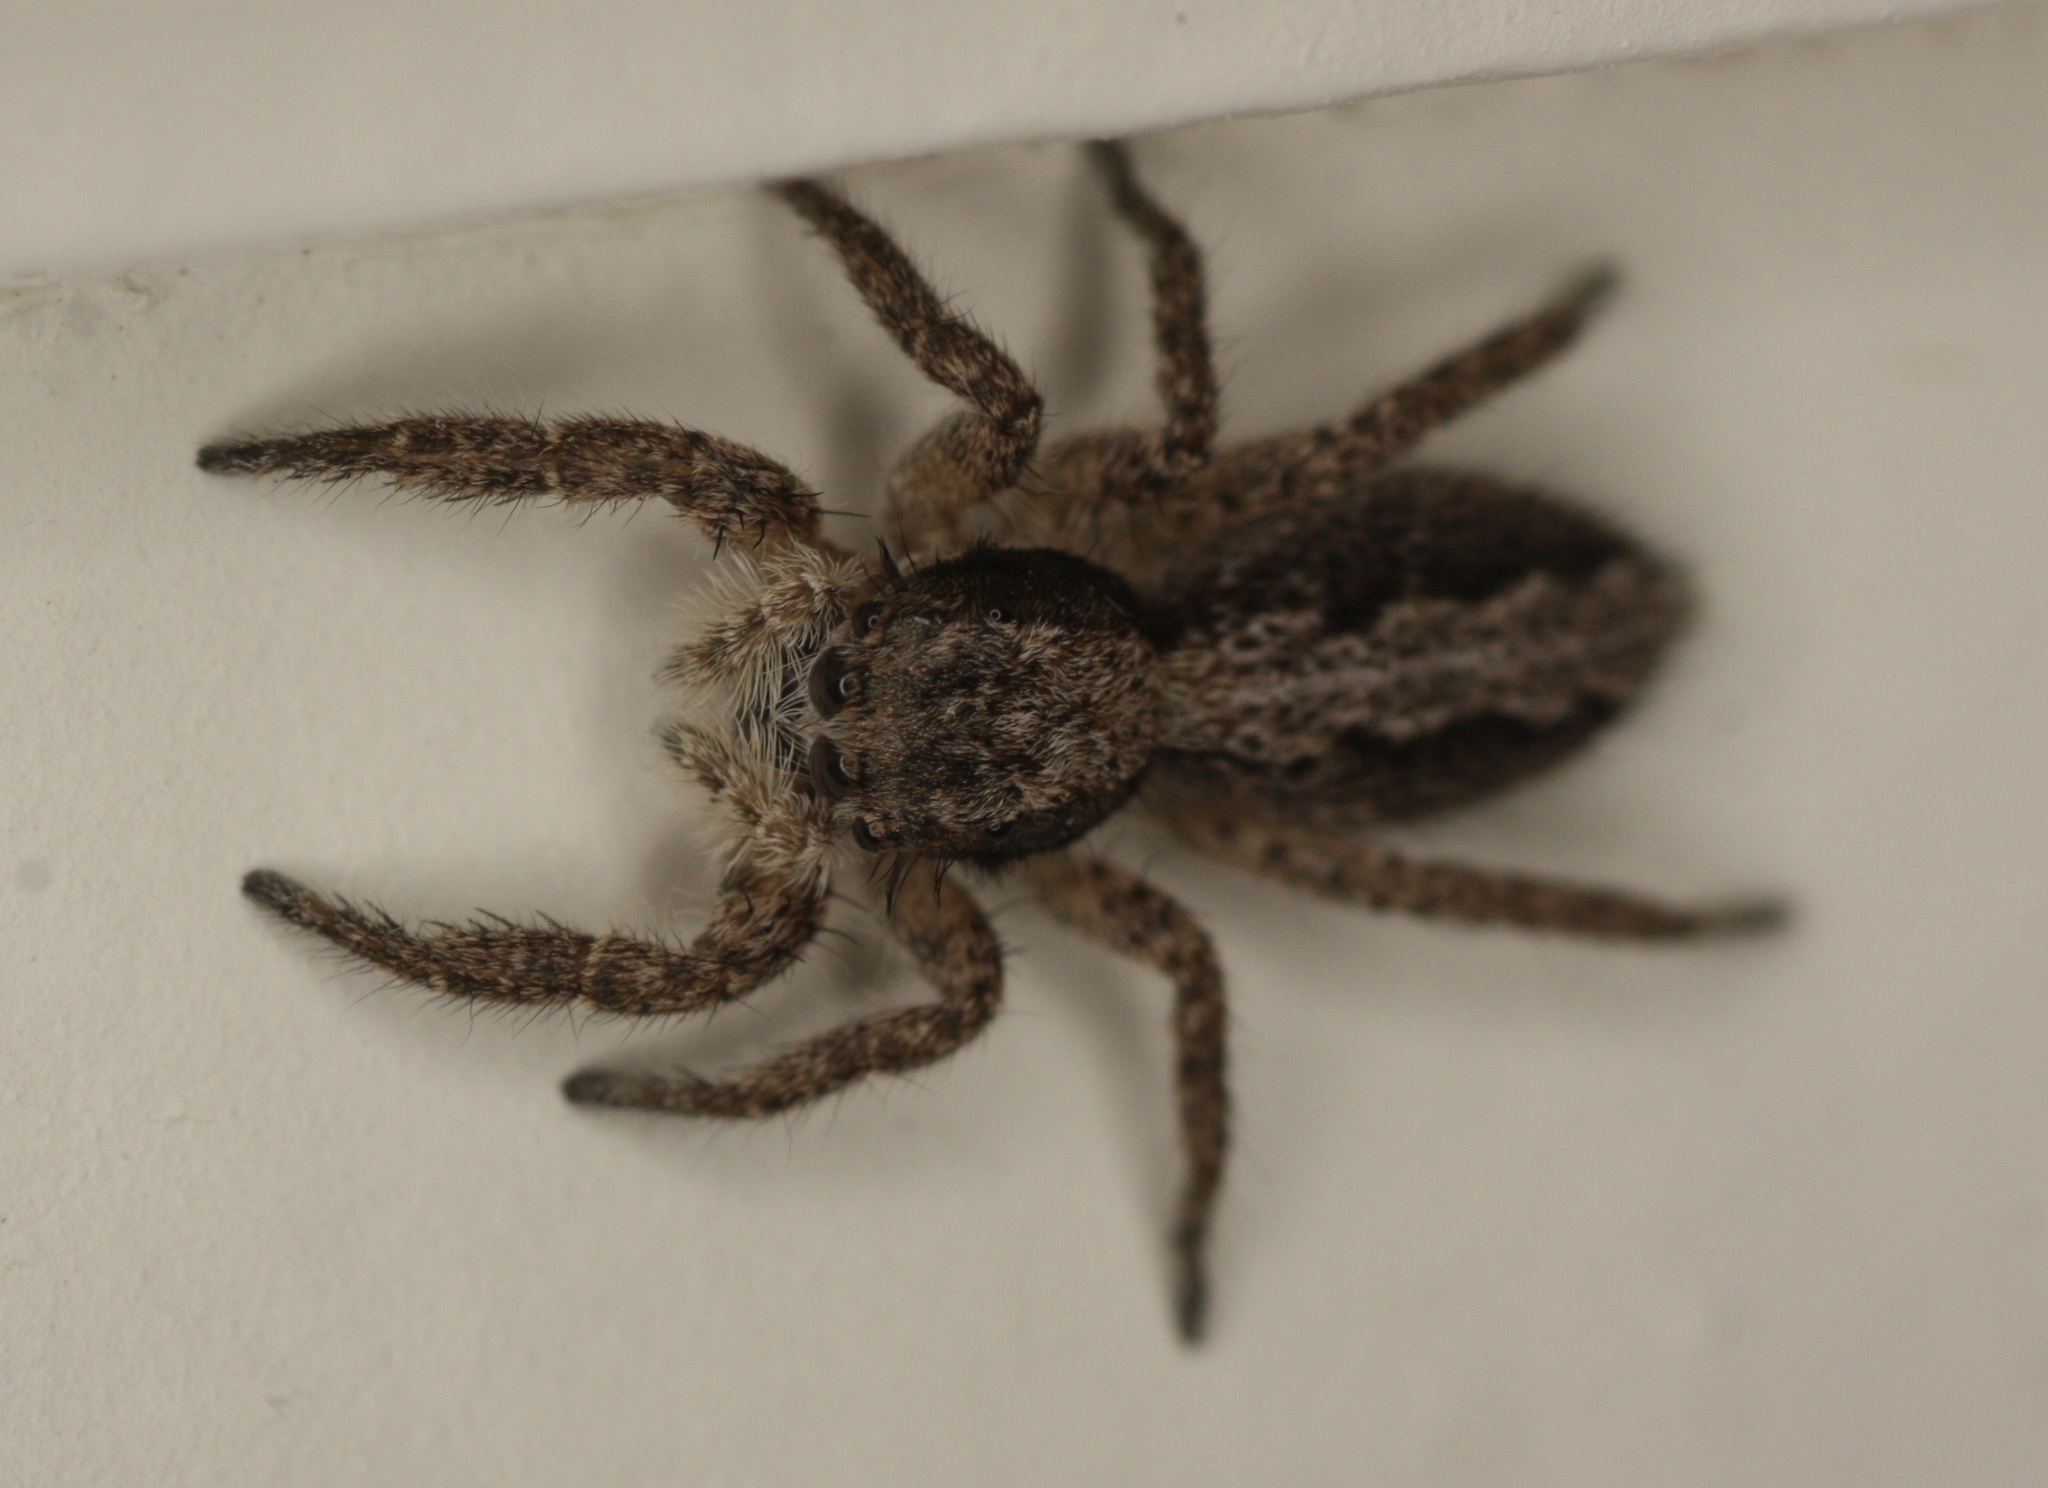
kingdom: Animalia
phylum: Arthropoda
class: Arachnida
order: Araneae
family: Salticidae
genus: Platycryptus
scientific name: Platycryptus californicus
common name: Jumping spiders
